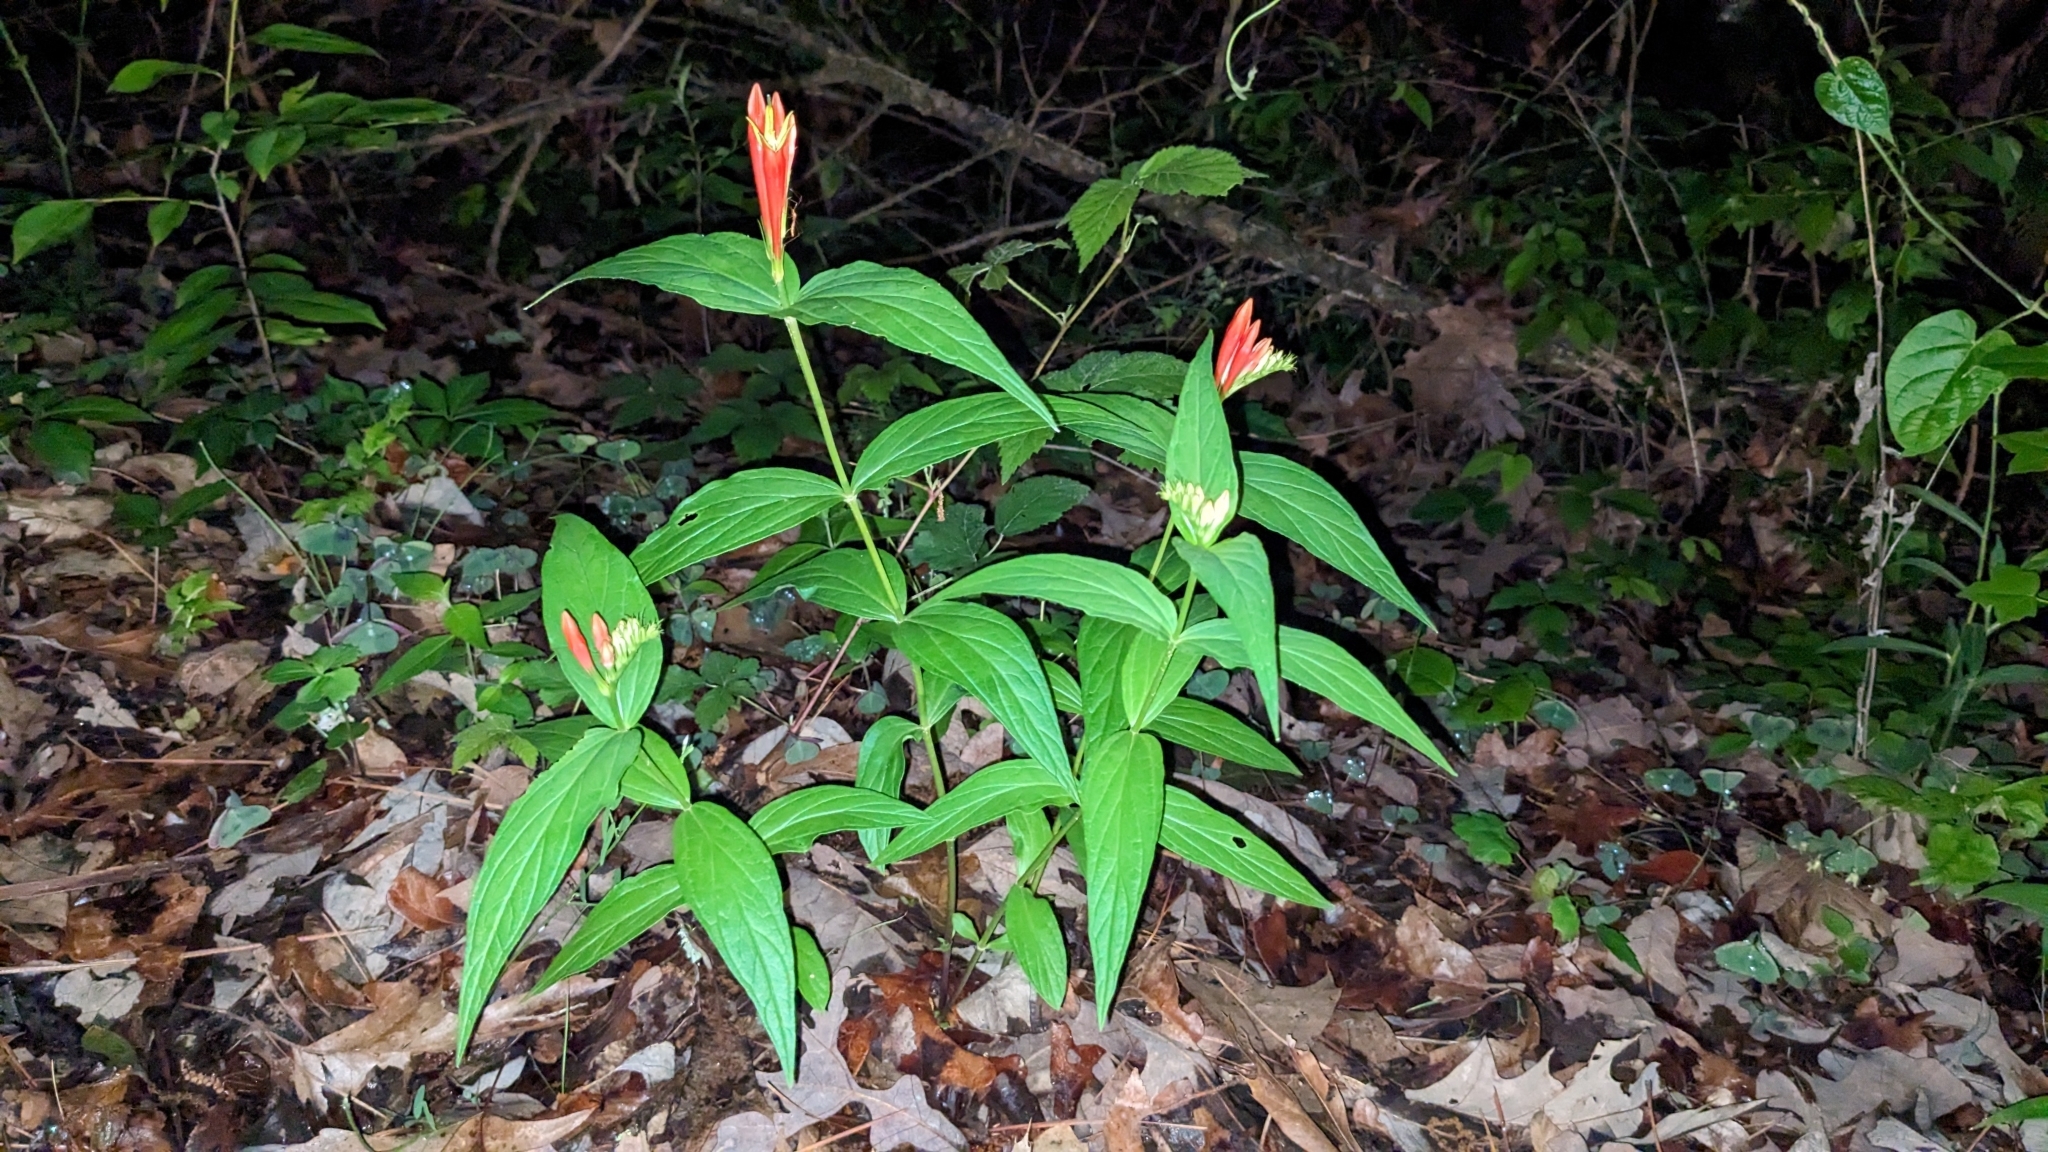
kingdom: Plantae
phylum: Tracheophyta
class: Magnoliopsida
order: Gentianales
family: Loganiaceae
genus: Spigelia
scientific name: Spigelia marilandica
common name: Indian-pink
